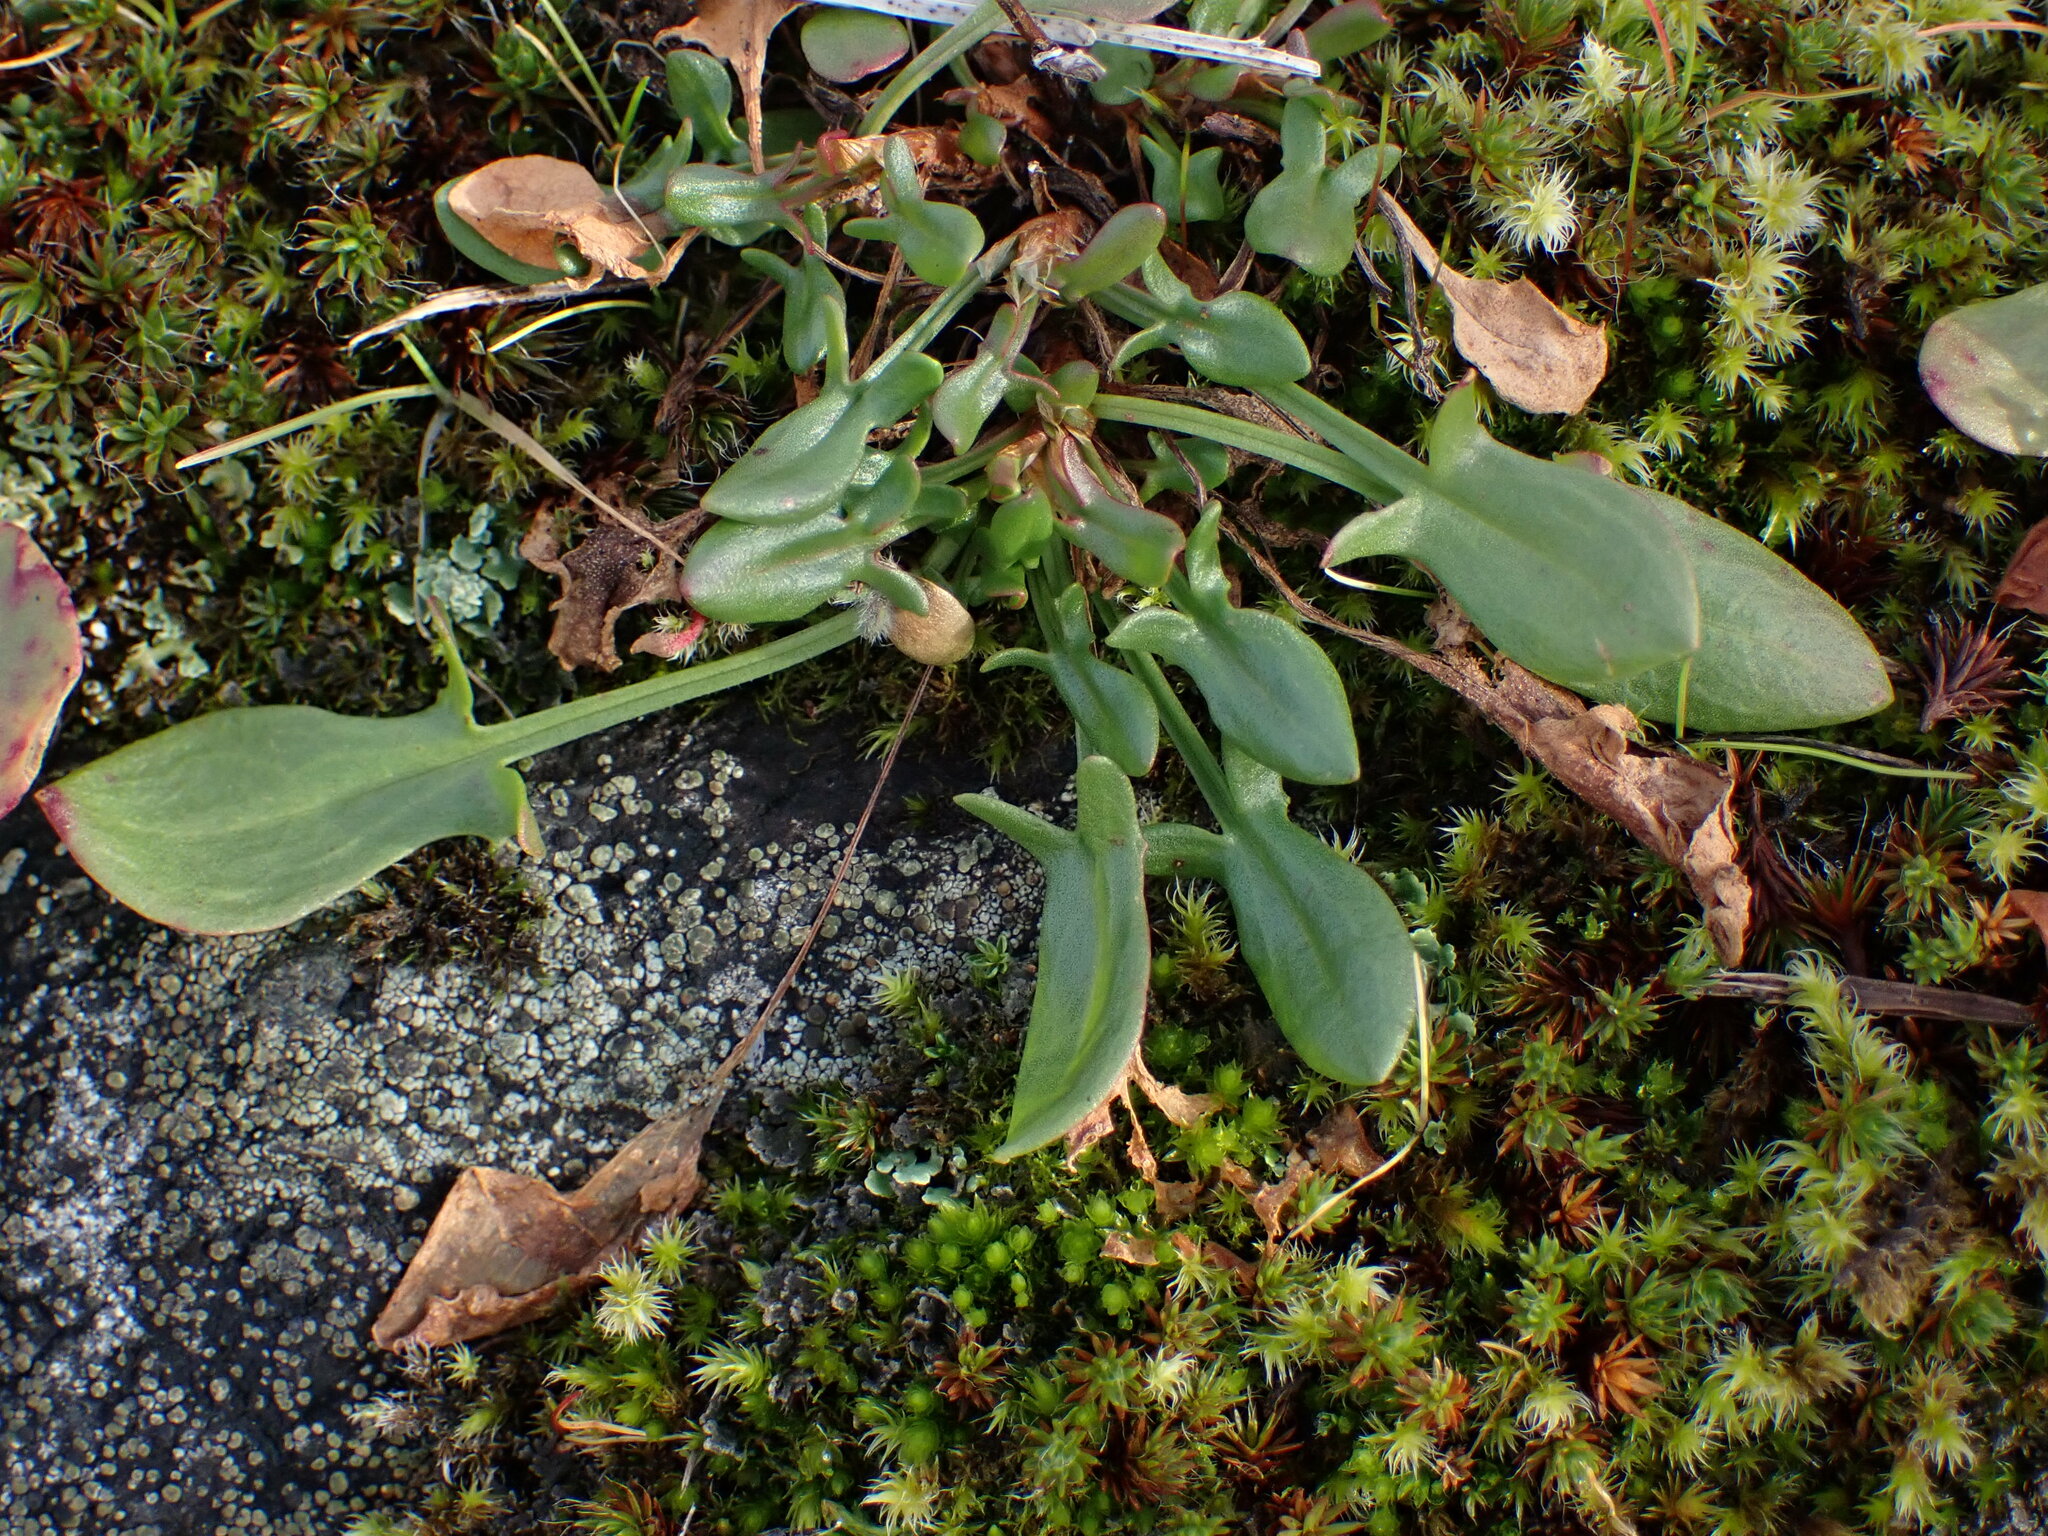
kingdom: Plantae
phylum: Tracheophyta
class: Magnoliopsida
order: Caryophyllales
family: Polygonaceae
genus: Rumex
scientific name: Rumex acetosella
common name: Common sheep sorrel
